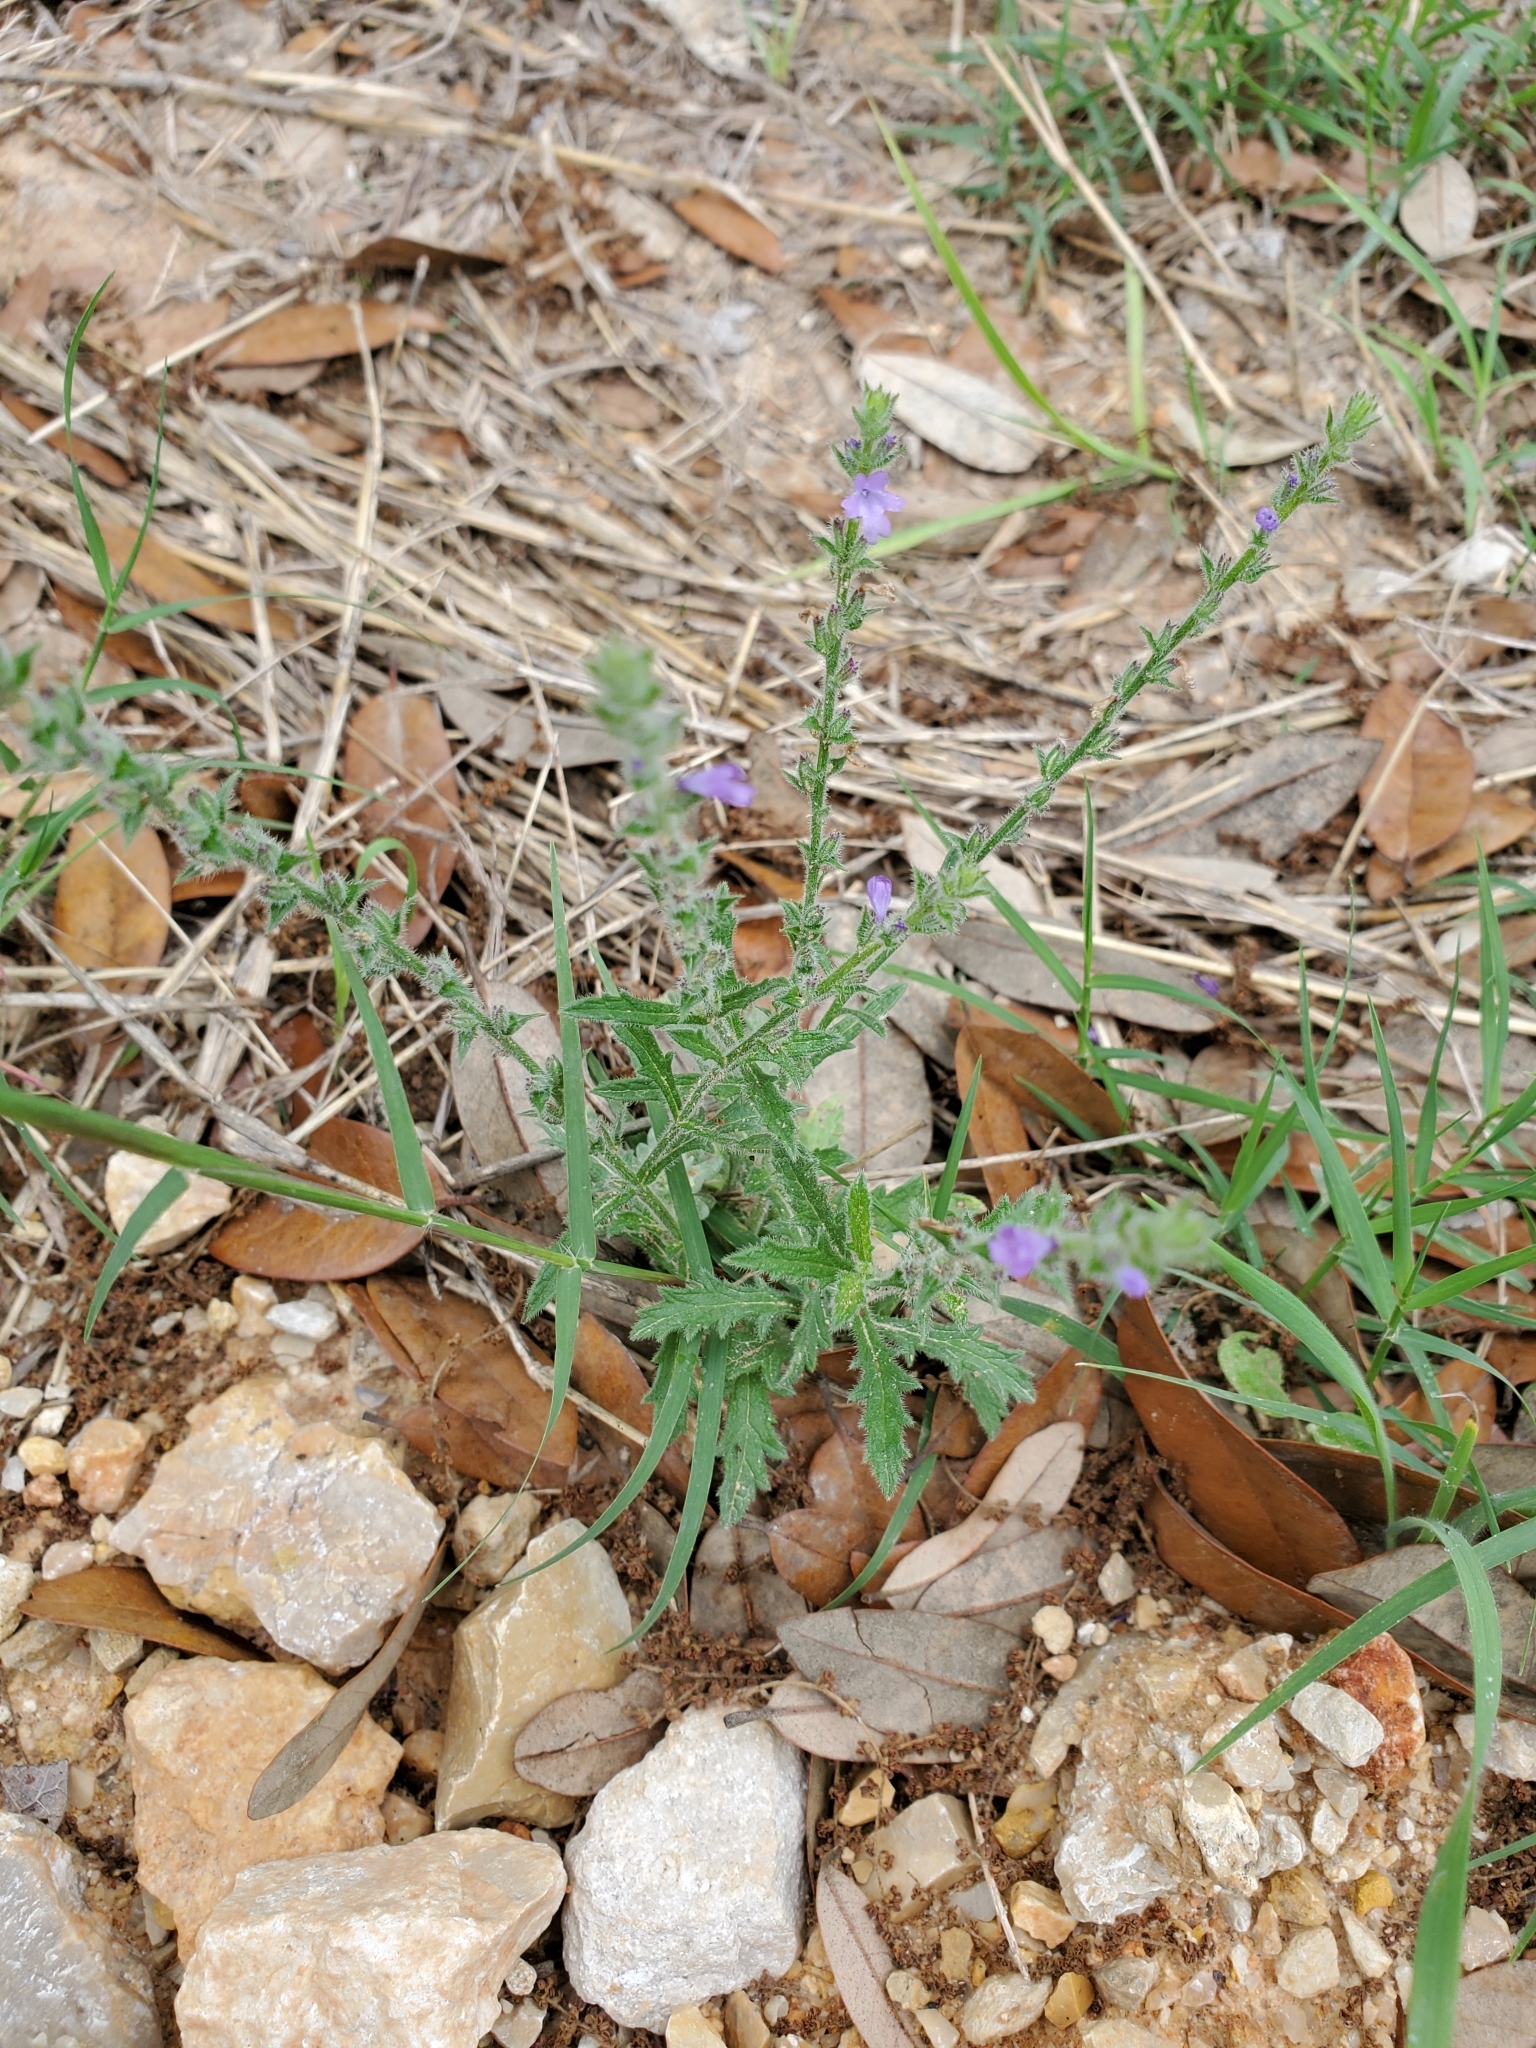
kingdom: Plantae
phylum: Tracheophyta
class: Magnoliopsida
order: Lamiales
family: Verbenaceae
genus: Verbena
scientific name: Verbena canescens
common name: Gray vervain
